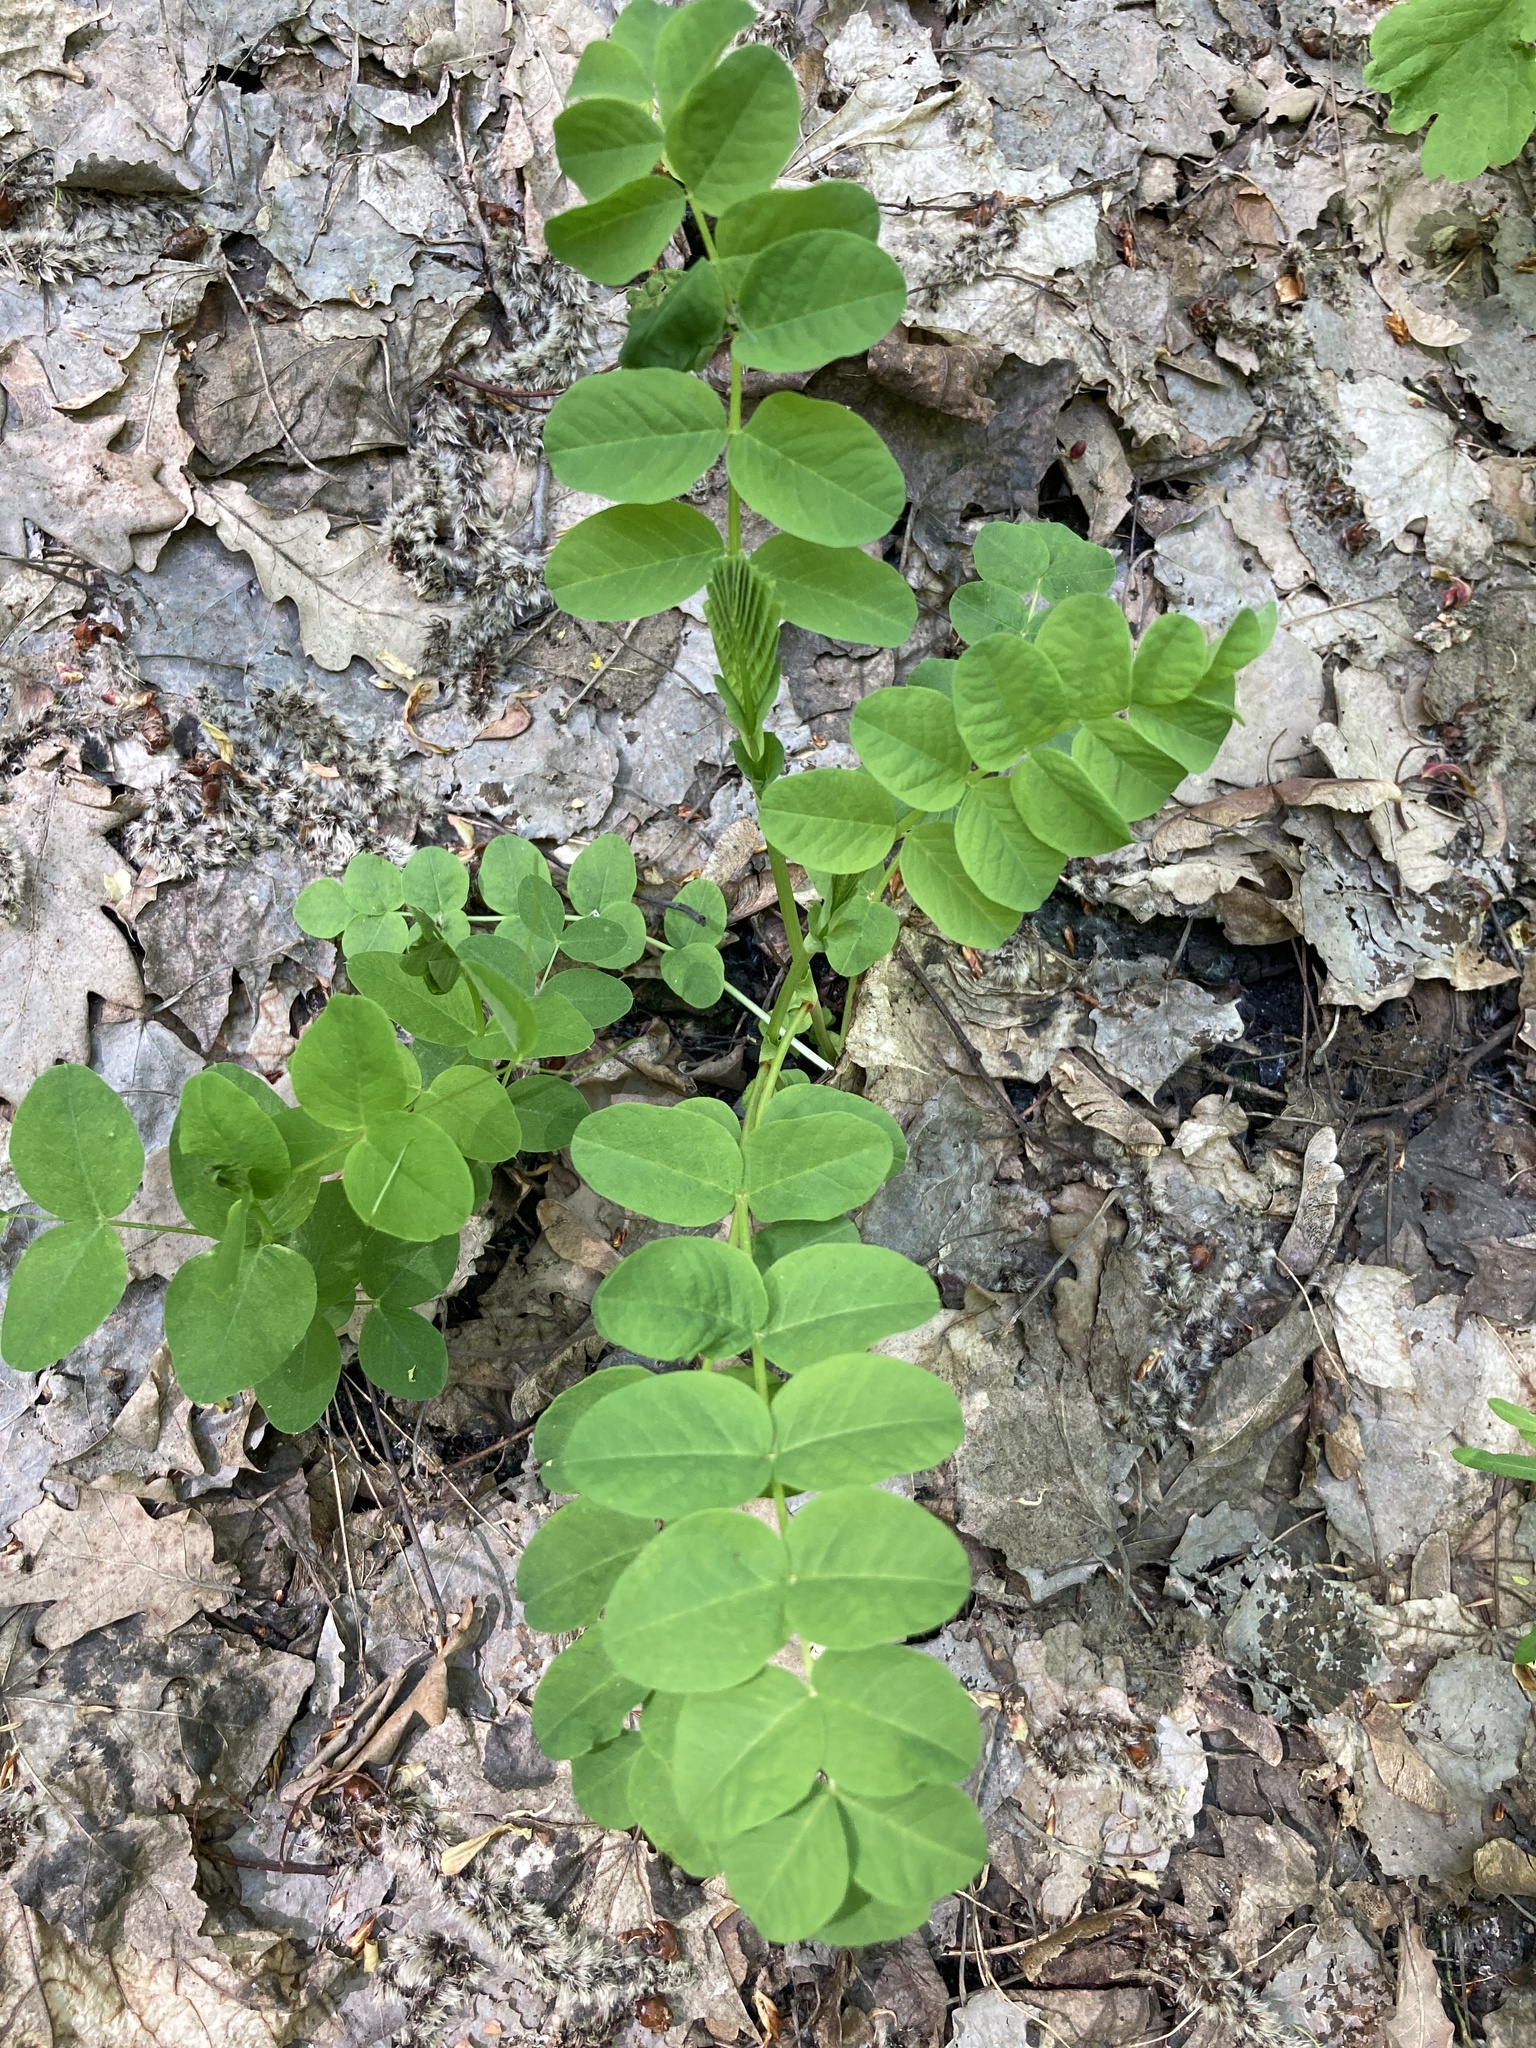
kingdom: Plantae
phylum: Tracheophyta
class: Magnoliopsida
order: Fabales
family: Fabaceae
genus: Astragalus
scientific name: Astragalus glycyphyllos
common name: Wild liquorice
